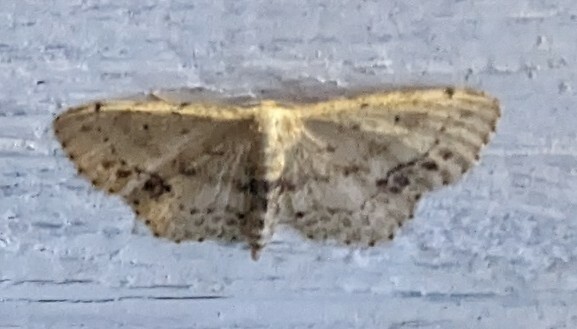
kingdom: Animalia
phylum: Arthropoda
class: Insecta
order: Lepidoptera
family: Geometridae
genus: Idaea
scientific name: Idaea dimidiata
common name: Single-dotted wave
